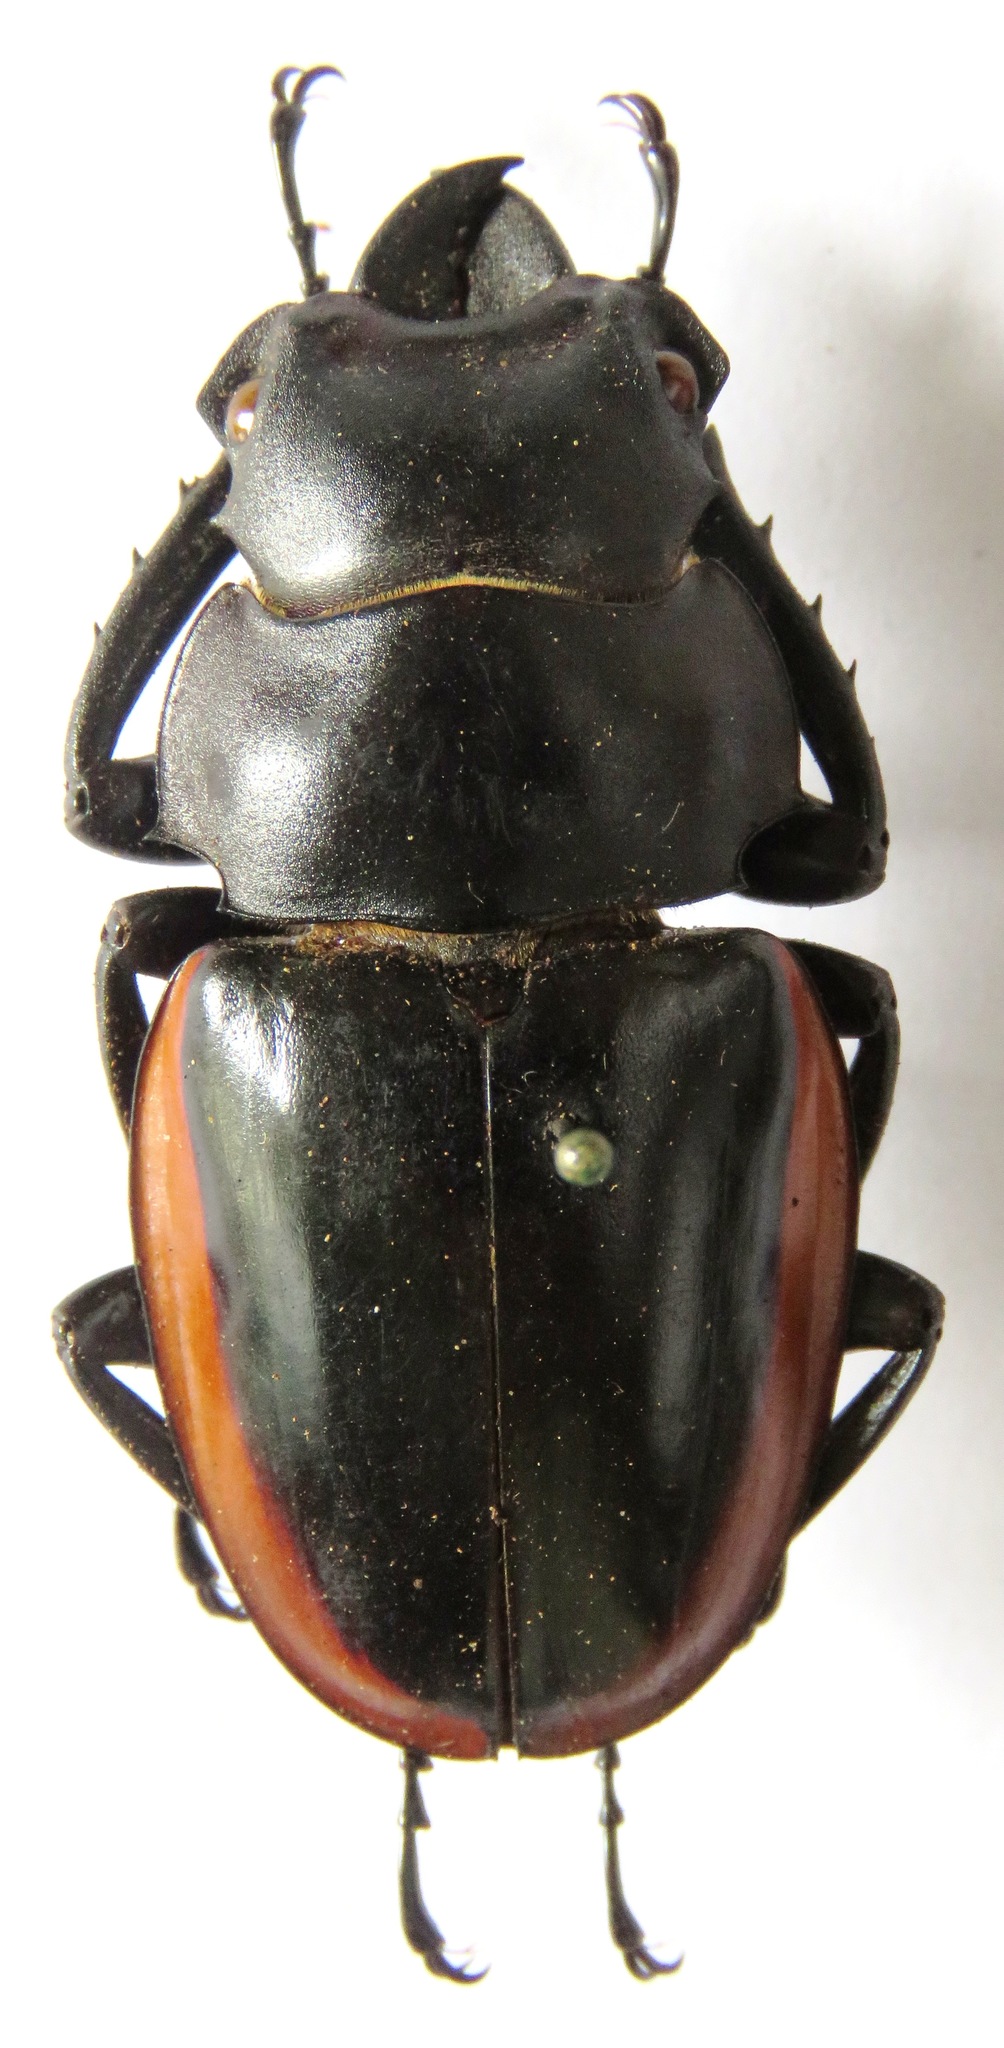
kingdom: Animalia
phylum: Arthropoda
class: Insecta
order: Coleoptera
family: Lucanidae
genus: Odontolabis
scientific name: Odontolabis cuvera
